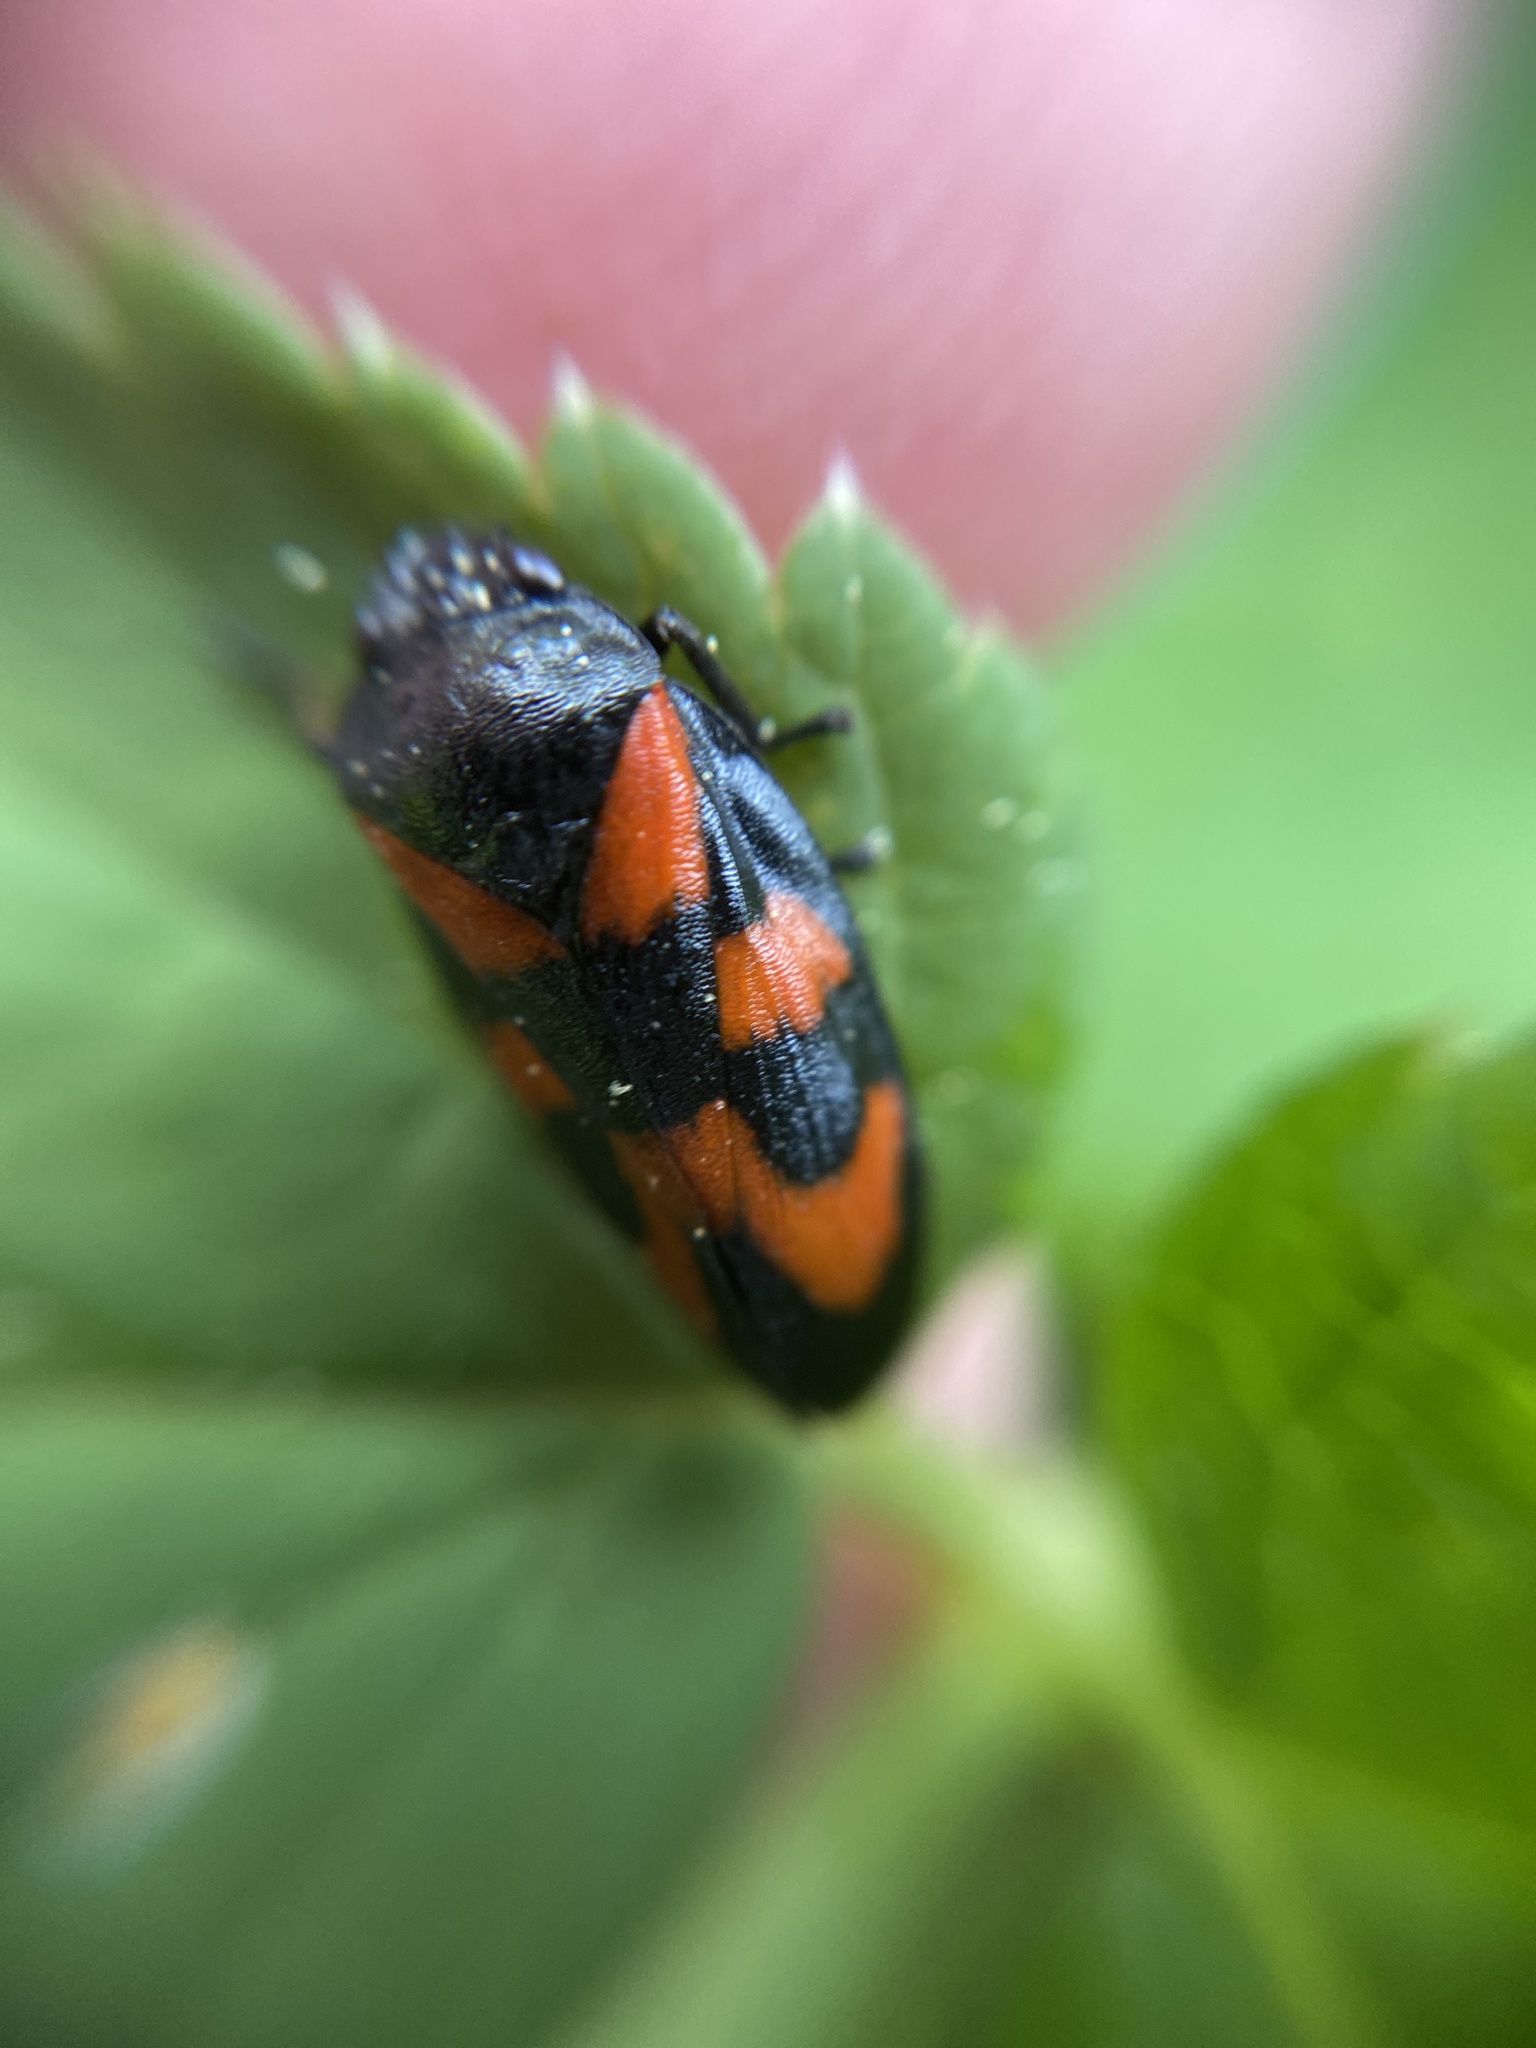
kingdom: Animalia
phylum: Arthropoda
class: Insecta
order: Hemiptera
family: Cercopidae
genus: Cercopis
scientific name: Cercopis vulnerata
